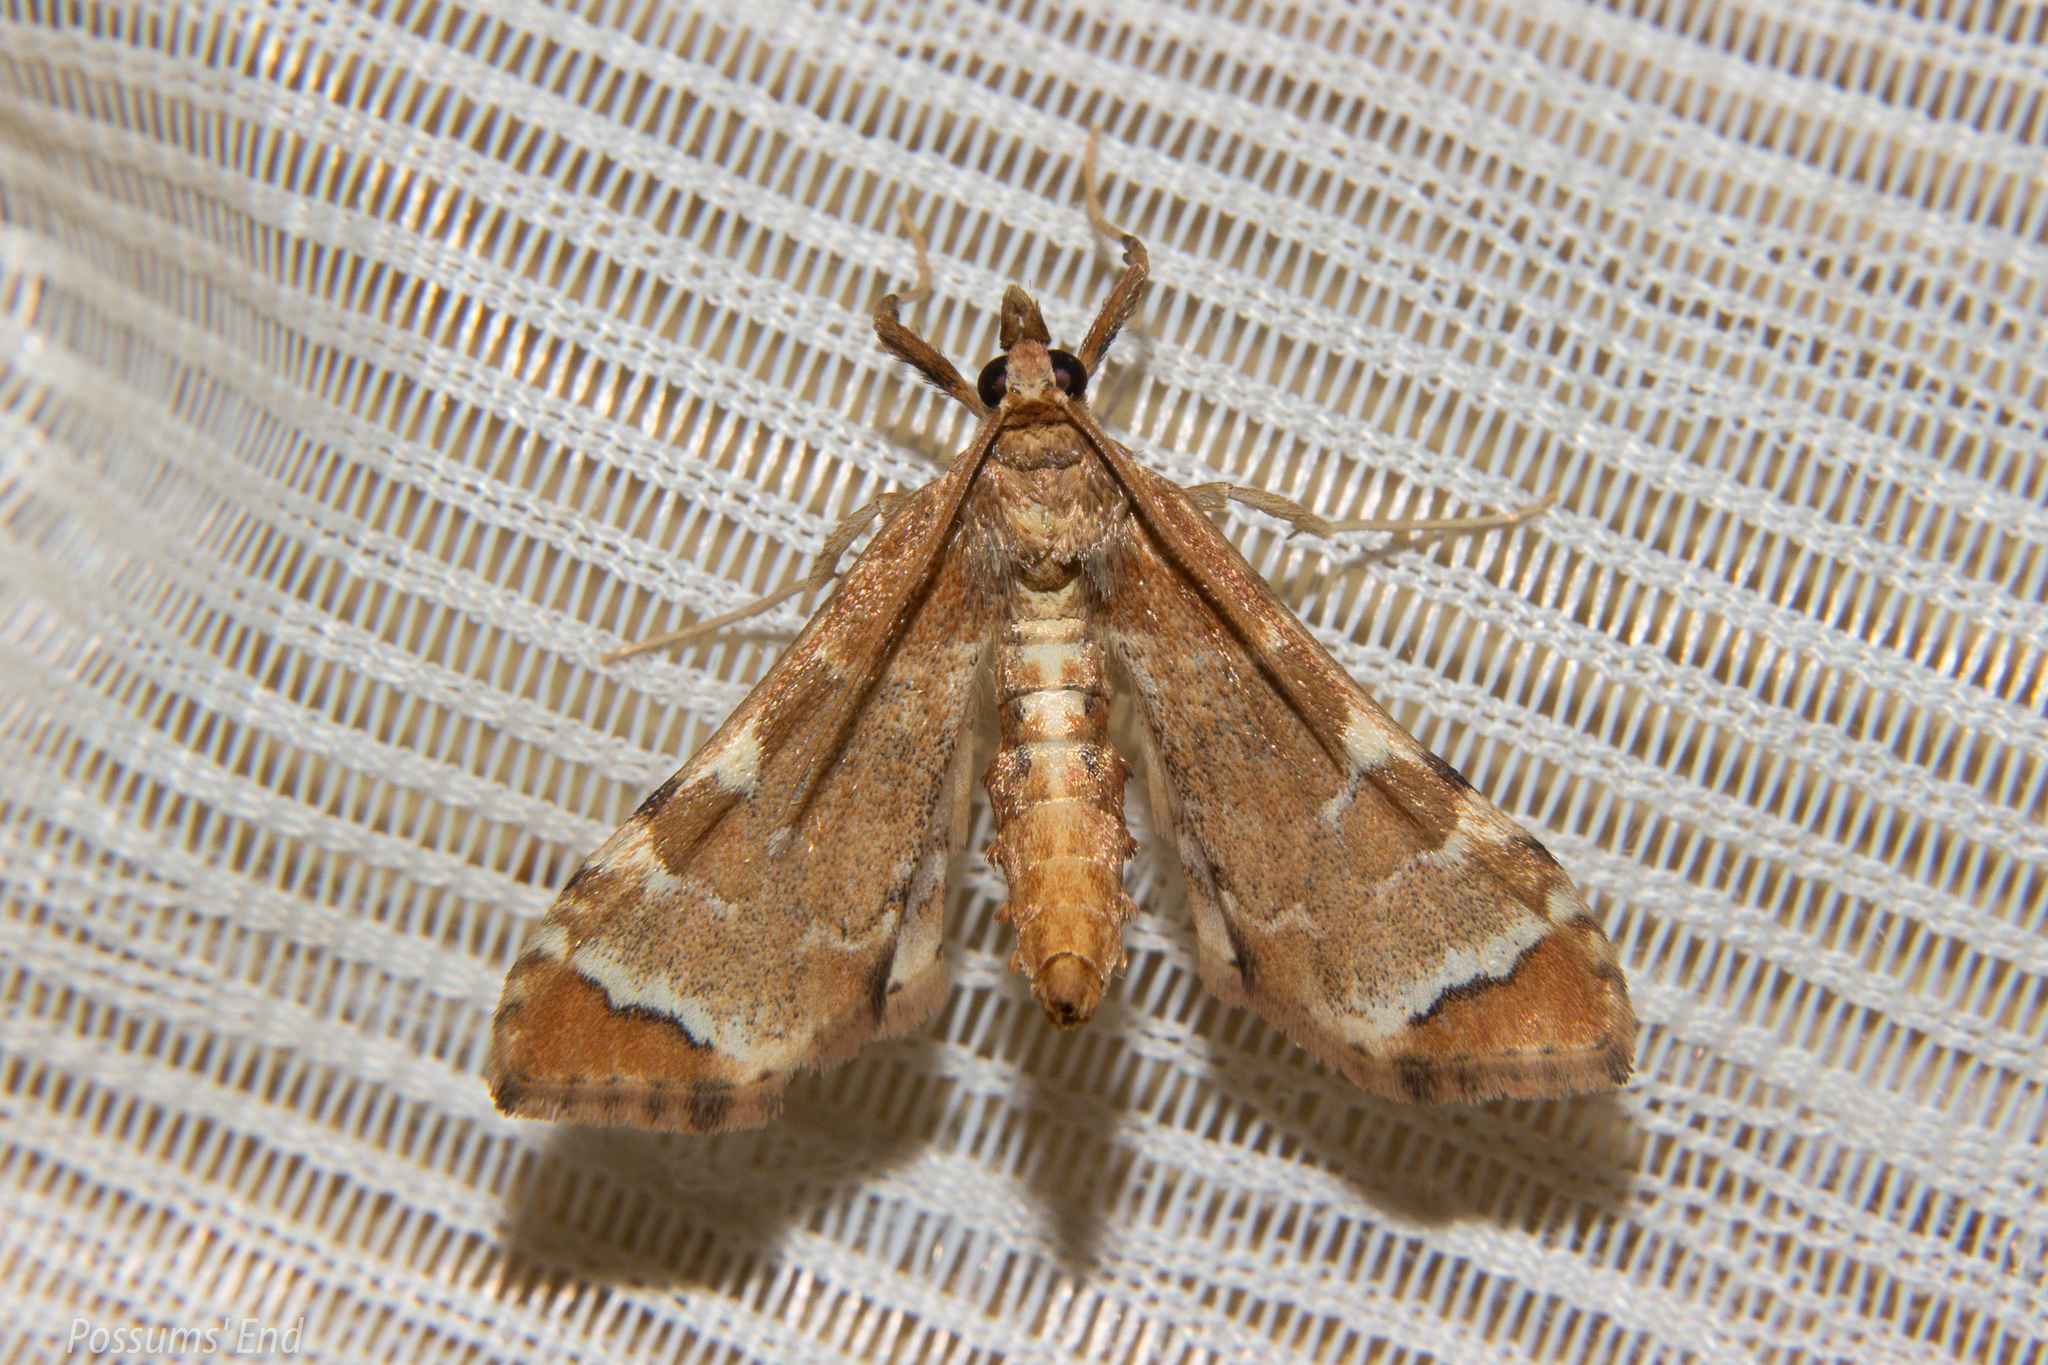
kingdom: Animalia
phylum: Arthropoda
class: Insecta
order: Lepidoptera
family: Crambidae
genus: Sceliodes
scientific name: Sceliodes cordalis
